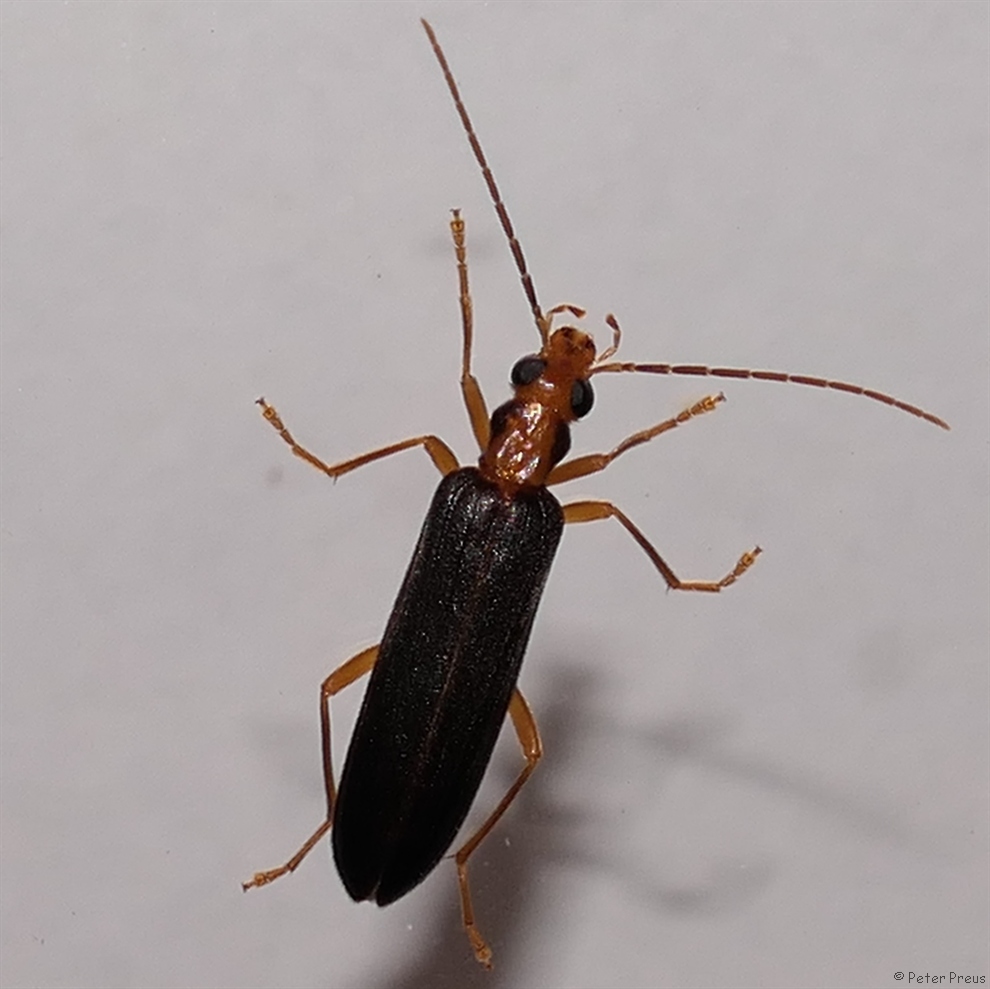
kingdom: Animalia
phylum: Arthropoda
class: Insecta
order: Coleoptera
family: Oedemeridae
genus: Nacerdes
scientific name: Nacerdes carniolica
